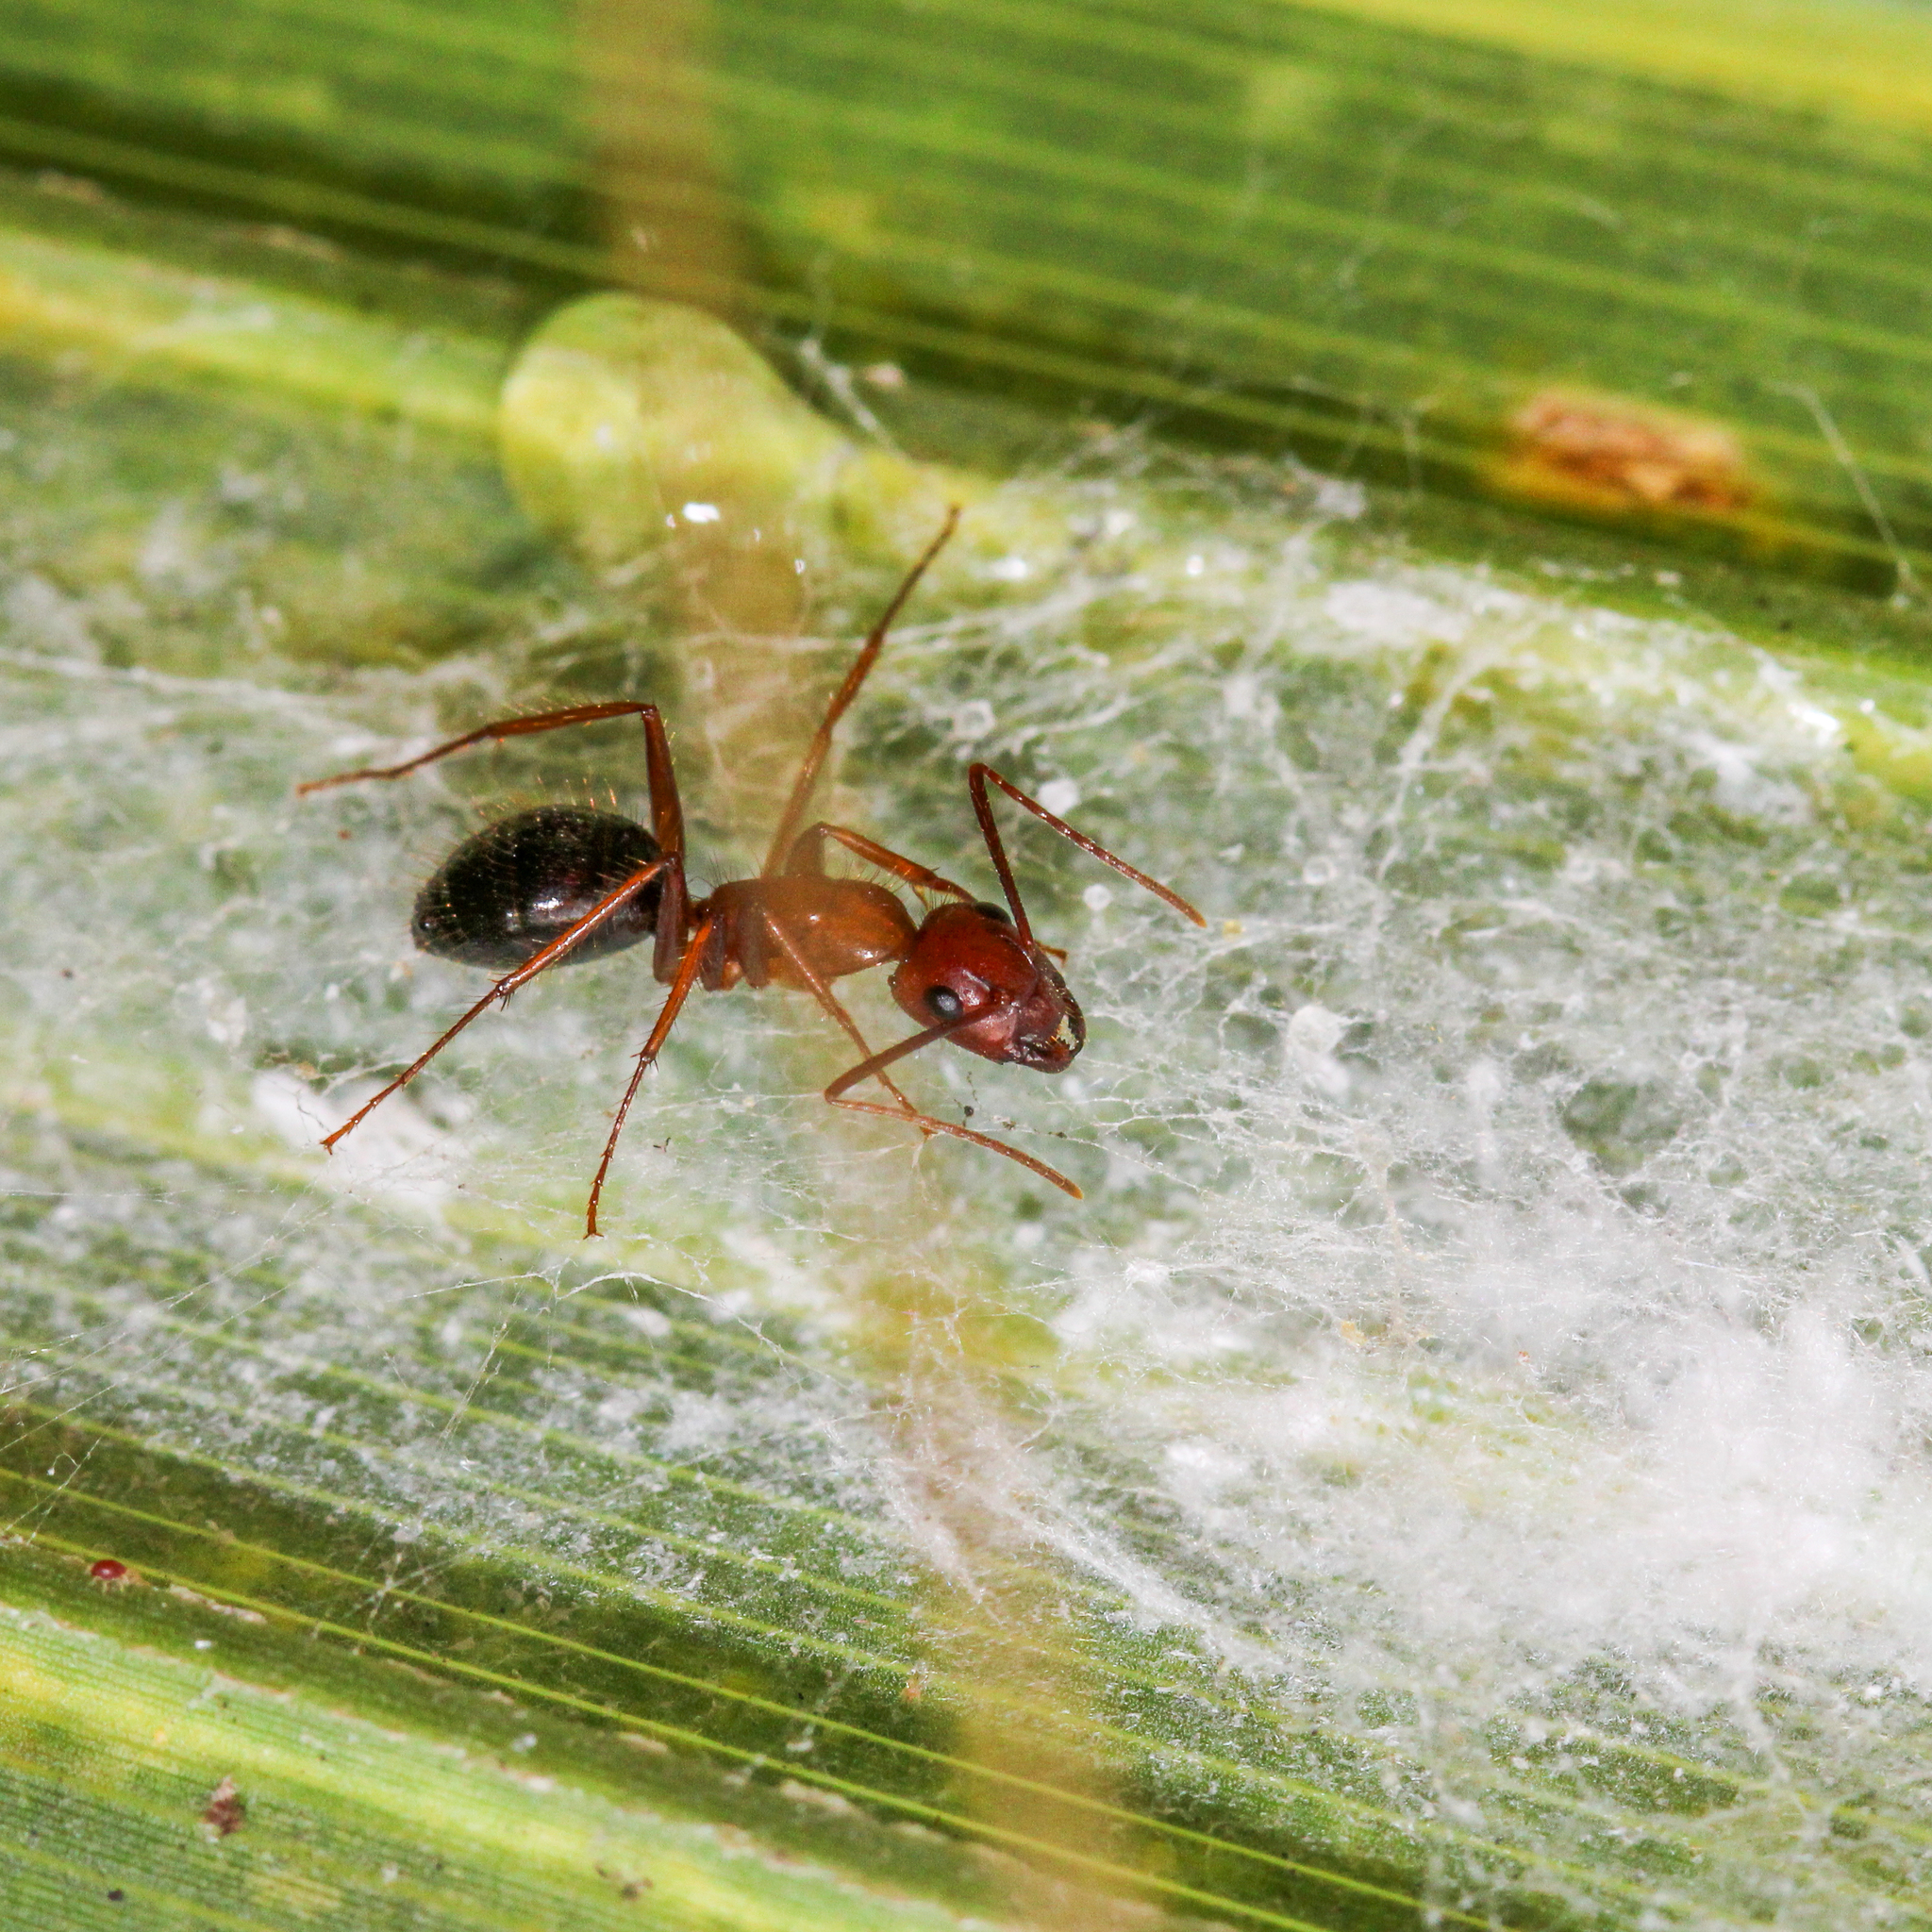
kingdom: Animalia
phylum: Arthropoda
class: Insecta
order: Hymenoptera
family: Formicidae
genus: Camponotus
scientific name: Camponotus floridanus
